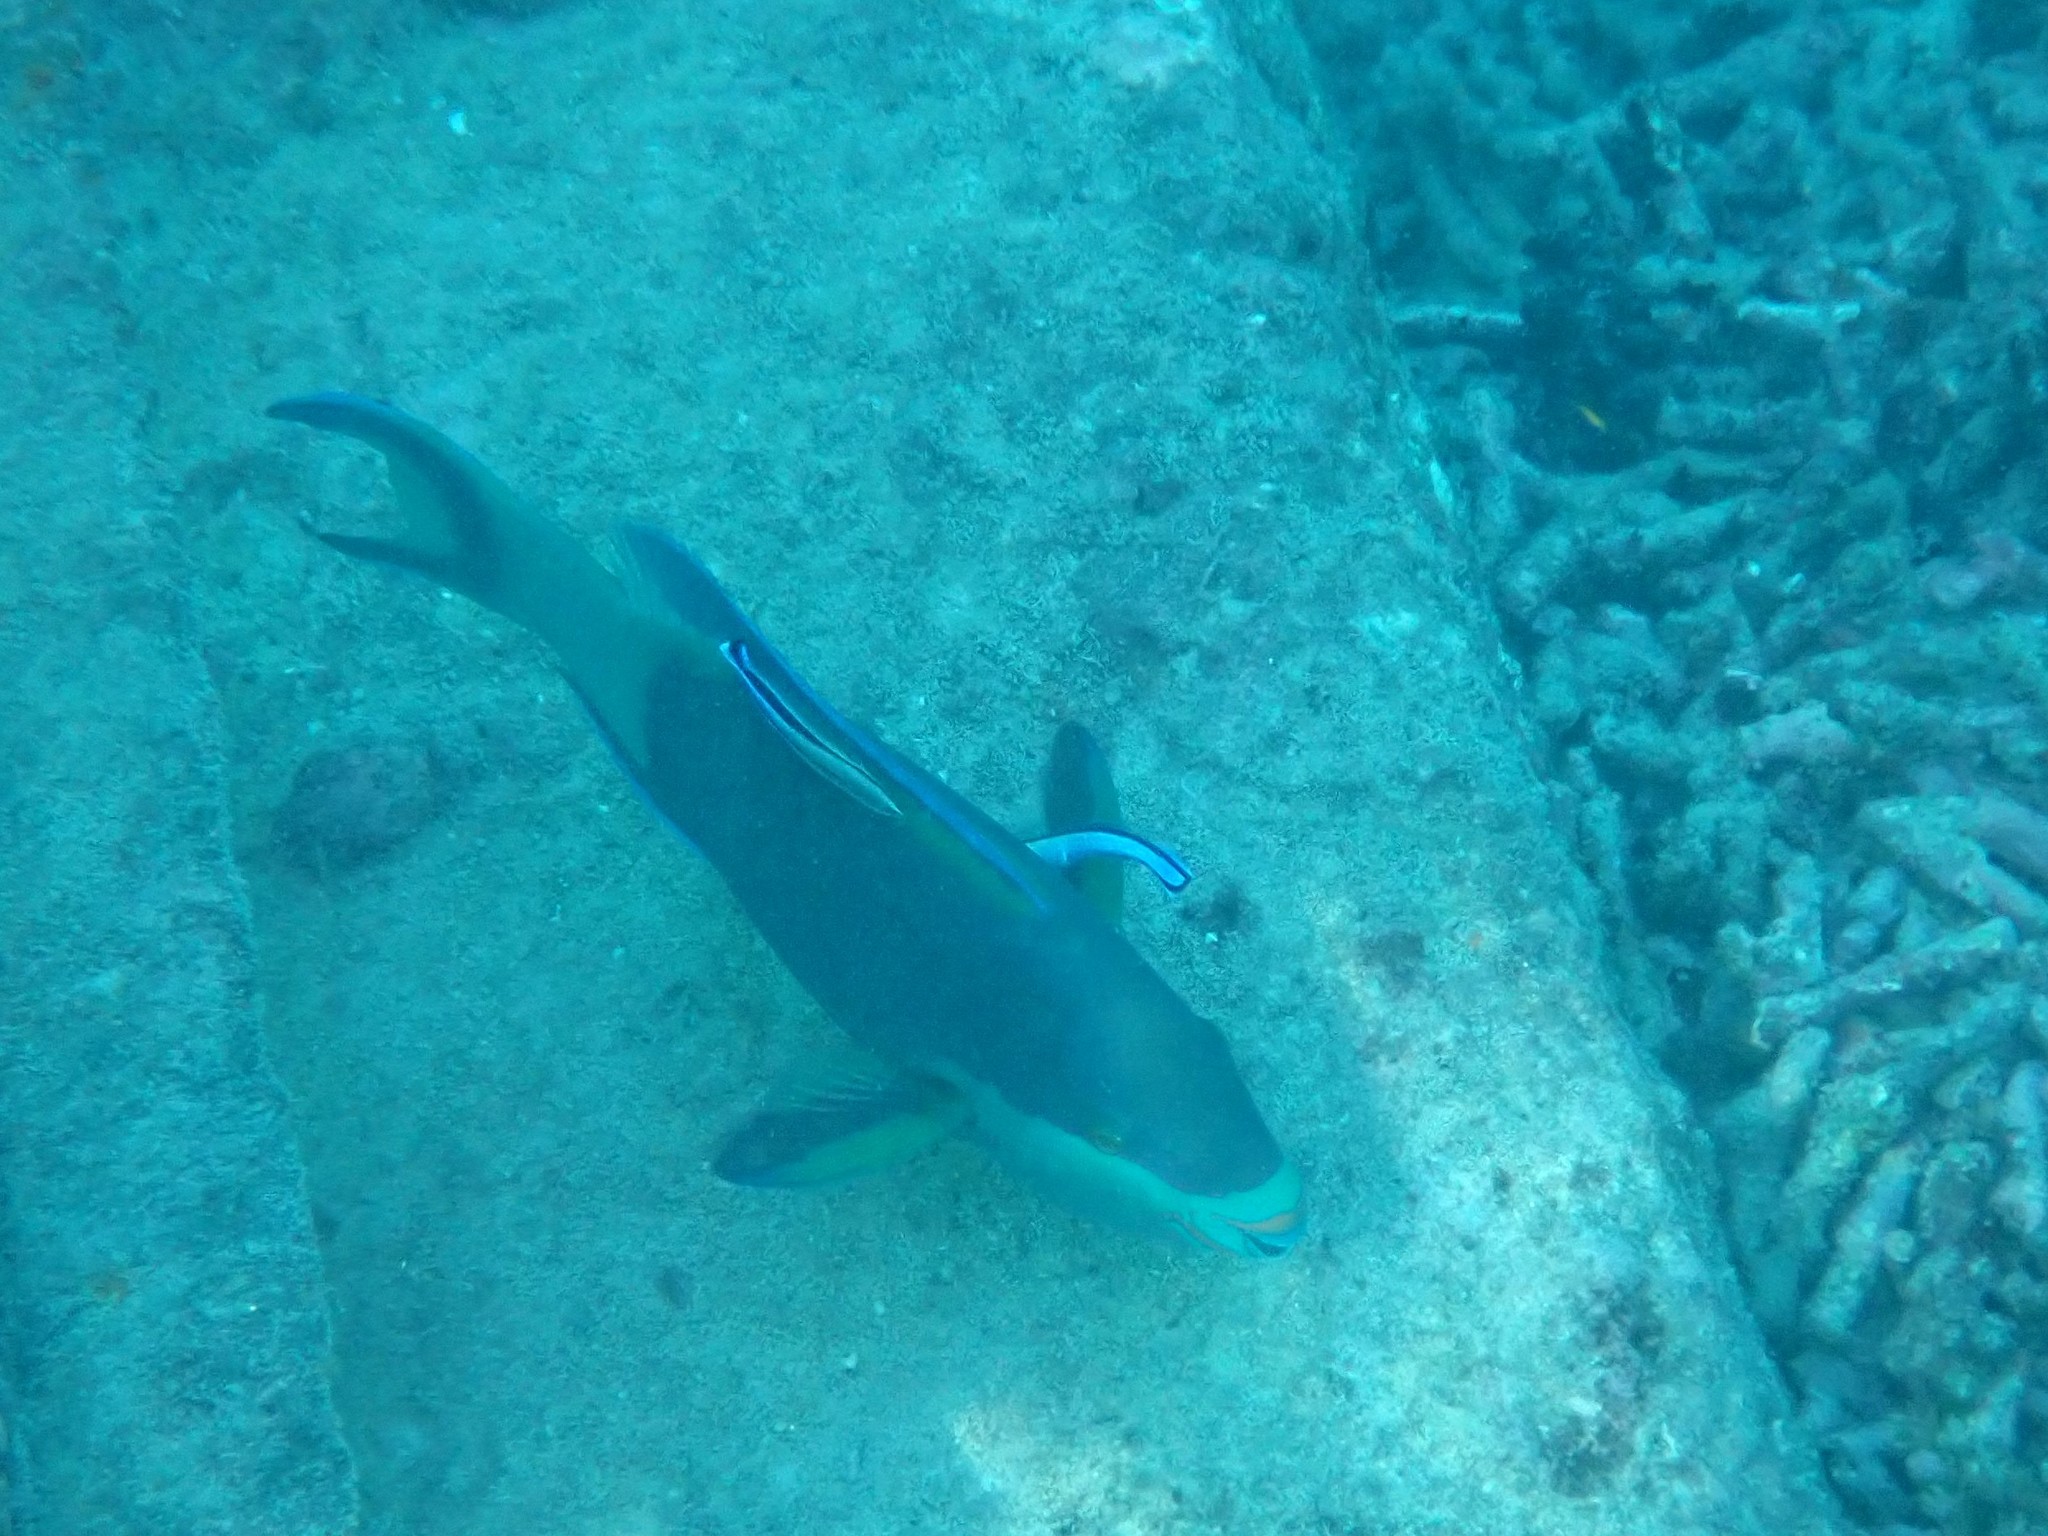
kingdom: Animalia
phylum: Chordata
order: Perciformes
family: Scaridae
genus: Scarus
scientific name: Scarus frenatus
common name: Bridled parrotfish
